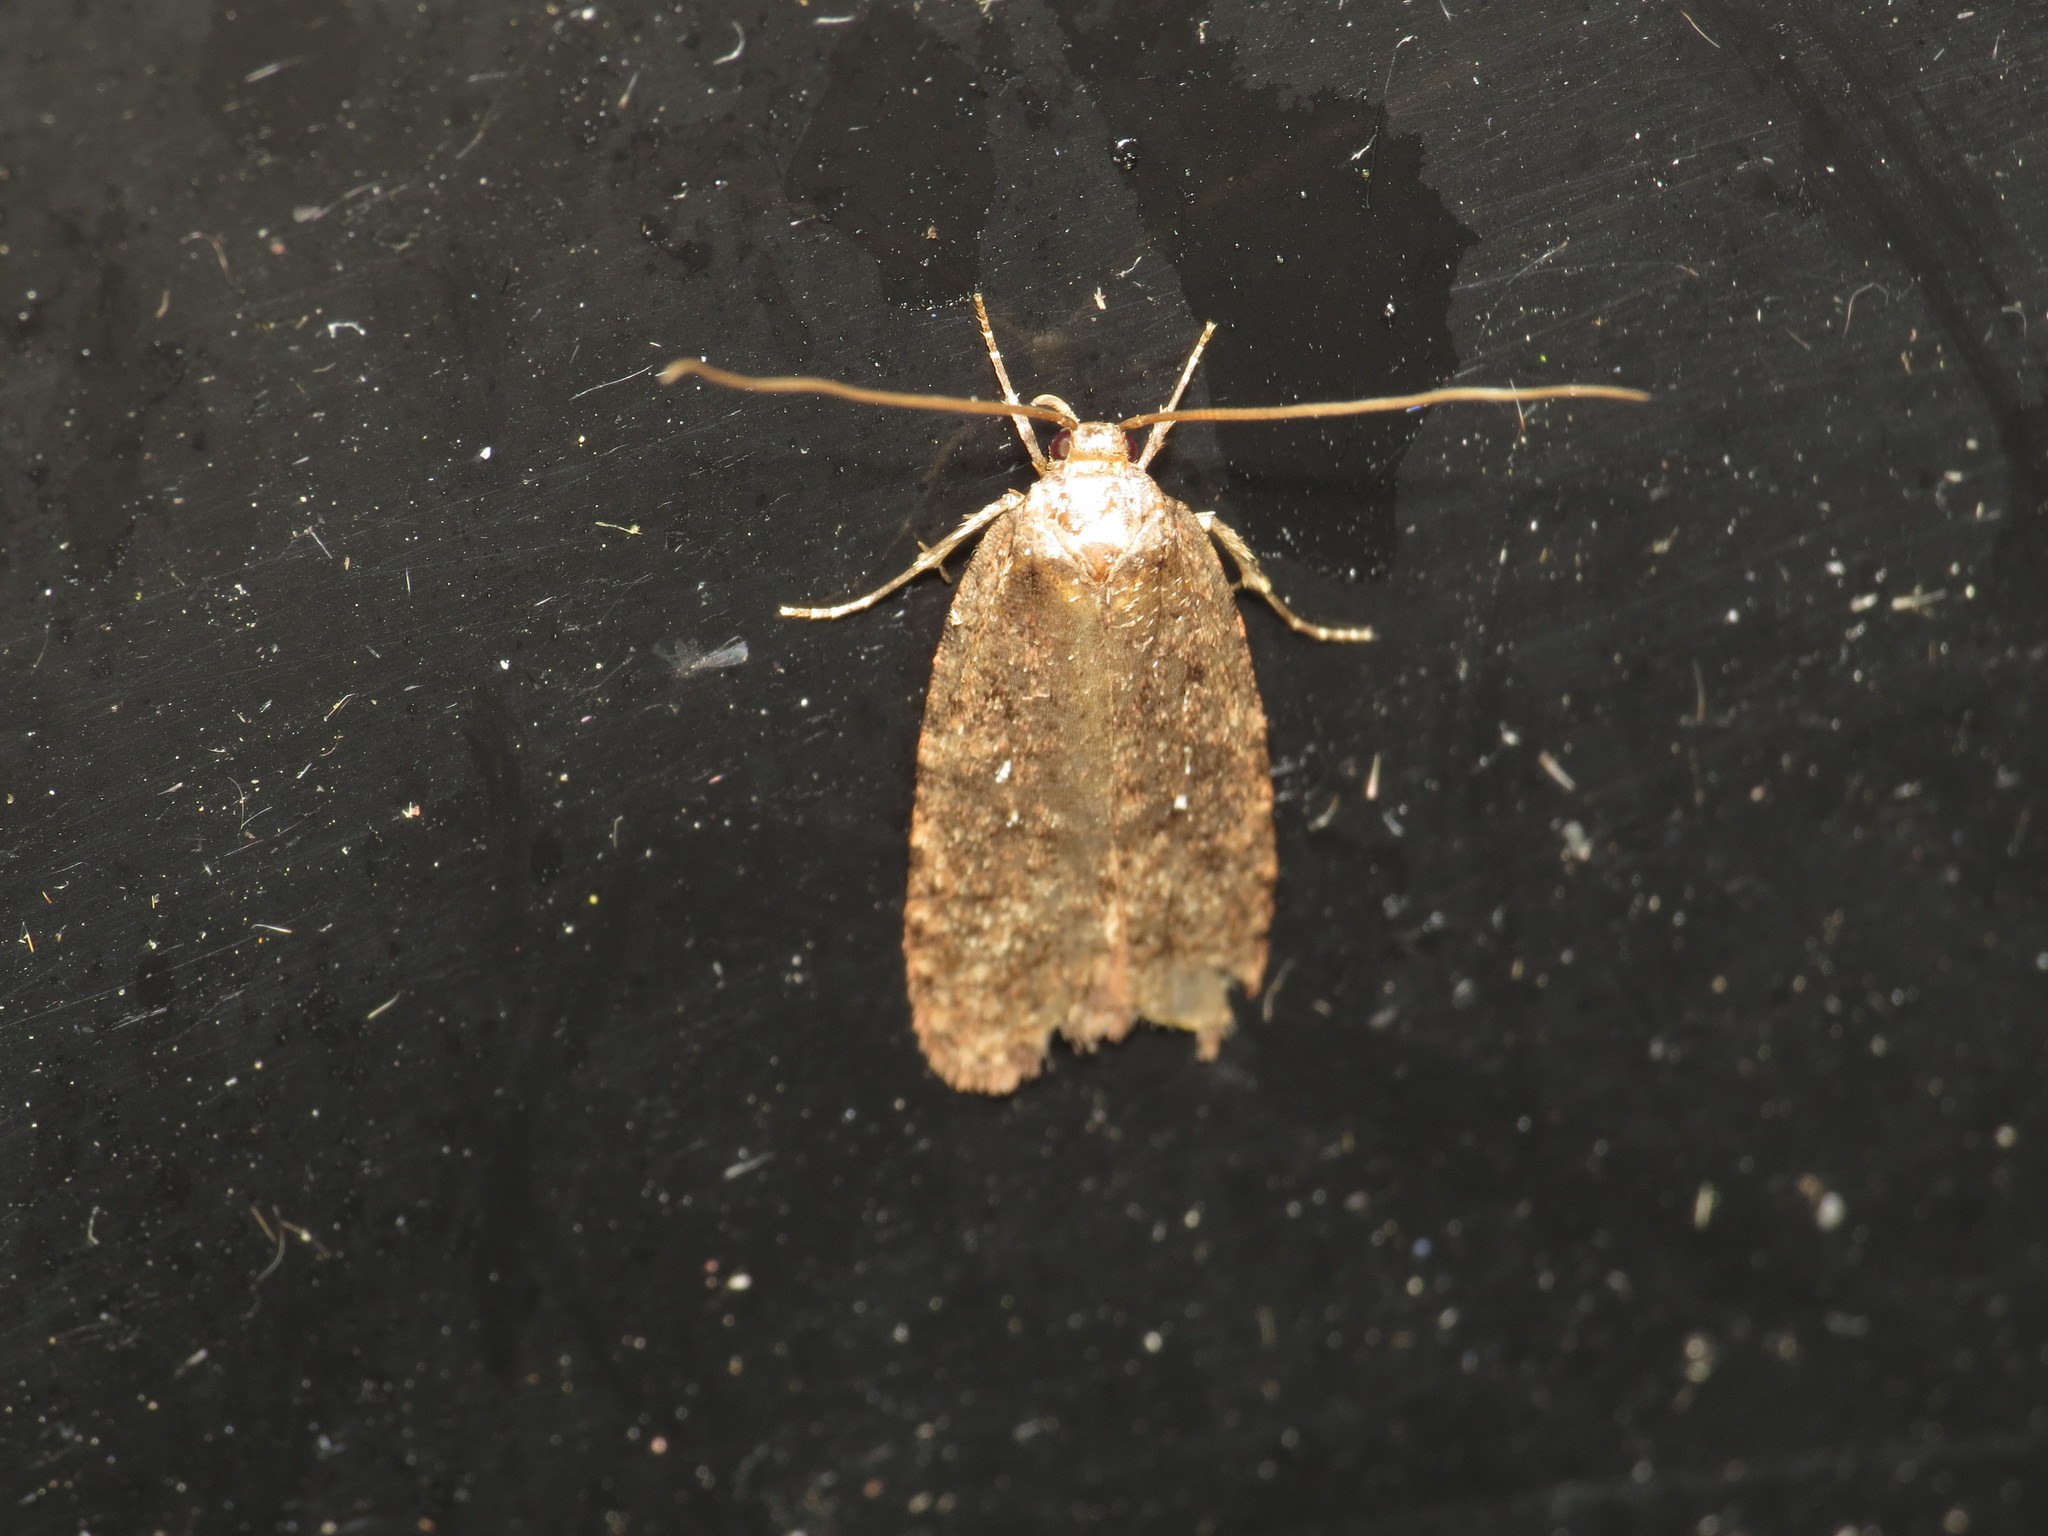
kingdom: Animalia
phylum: Arthropoda
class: Insecta
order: Lepidoptera
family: Depressariidae
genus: Agonopterix
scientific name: Agonopterix heracliana
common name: Common flat-body
